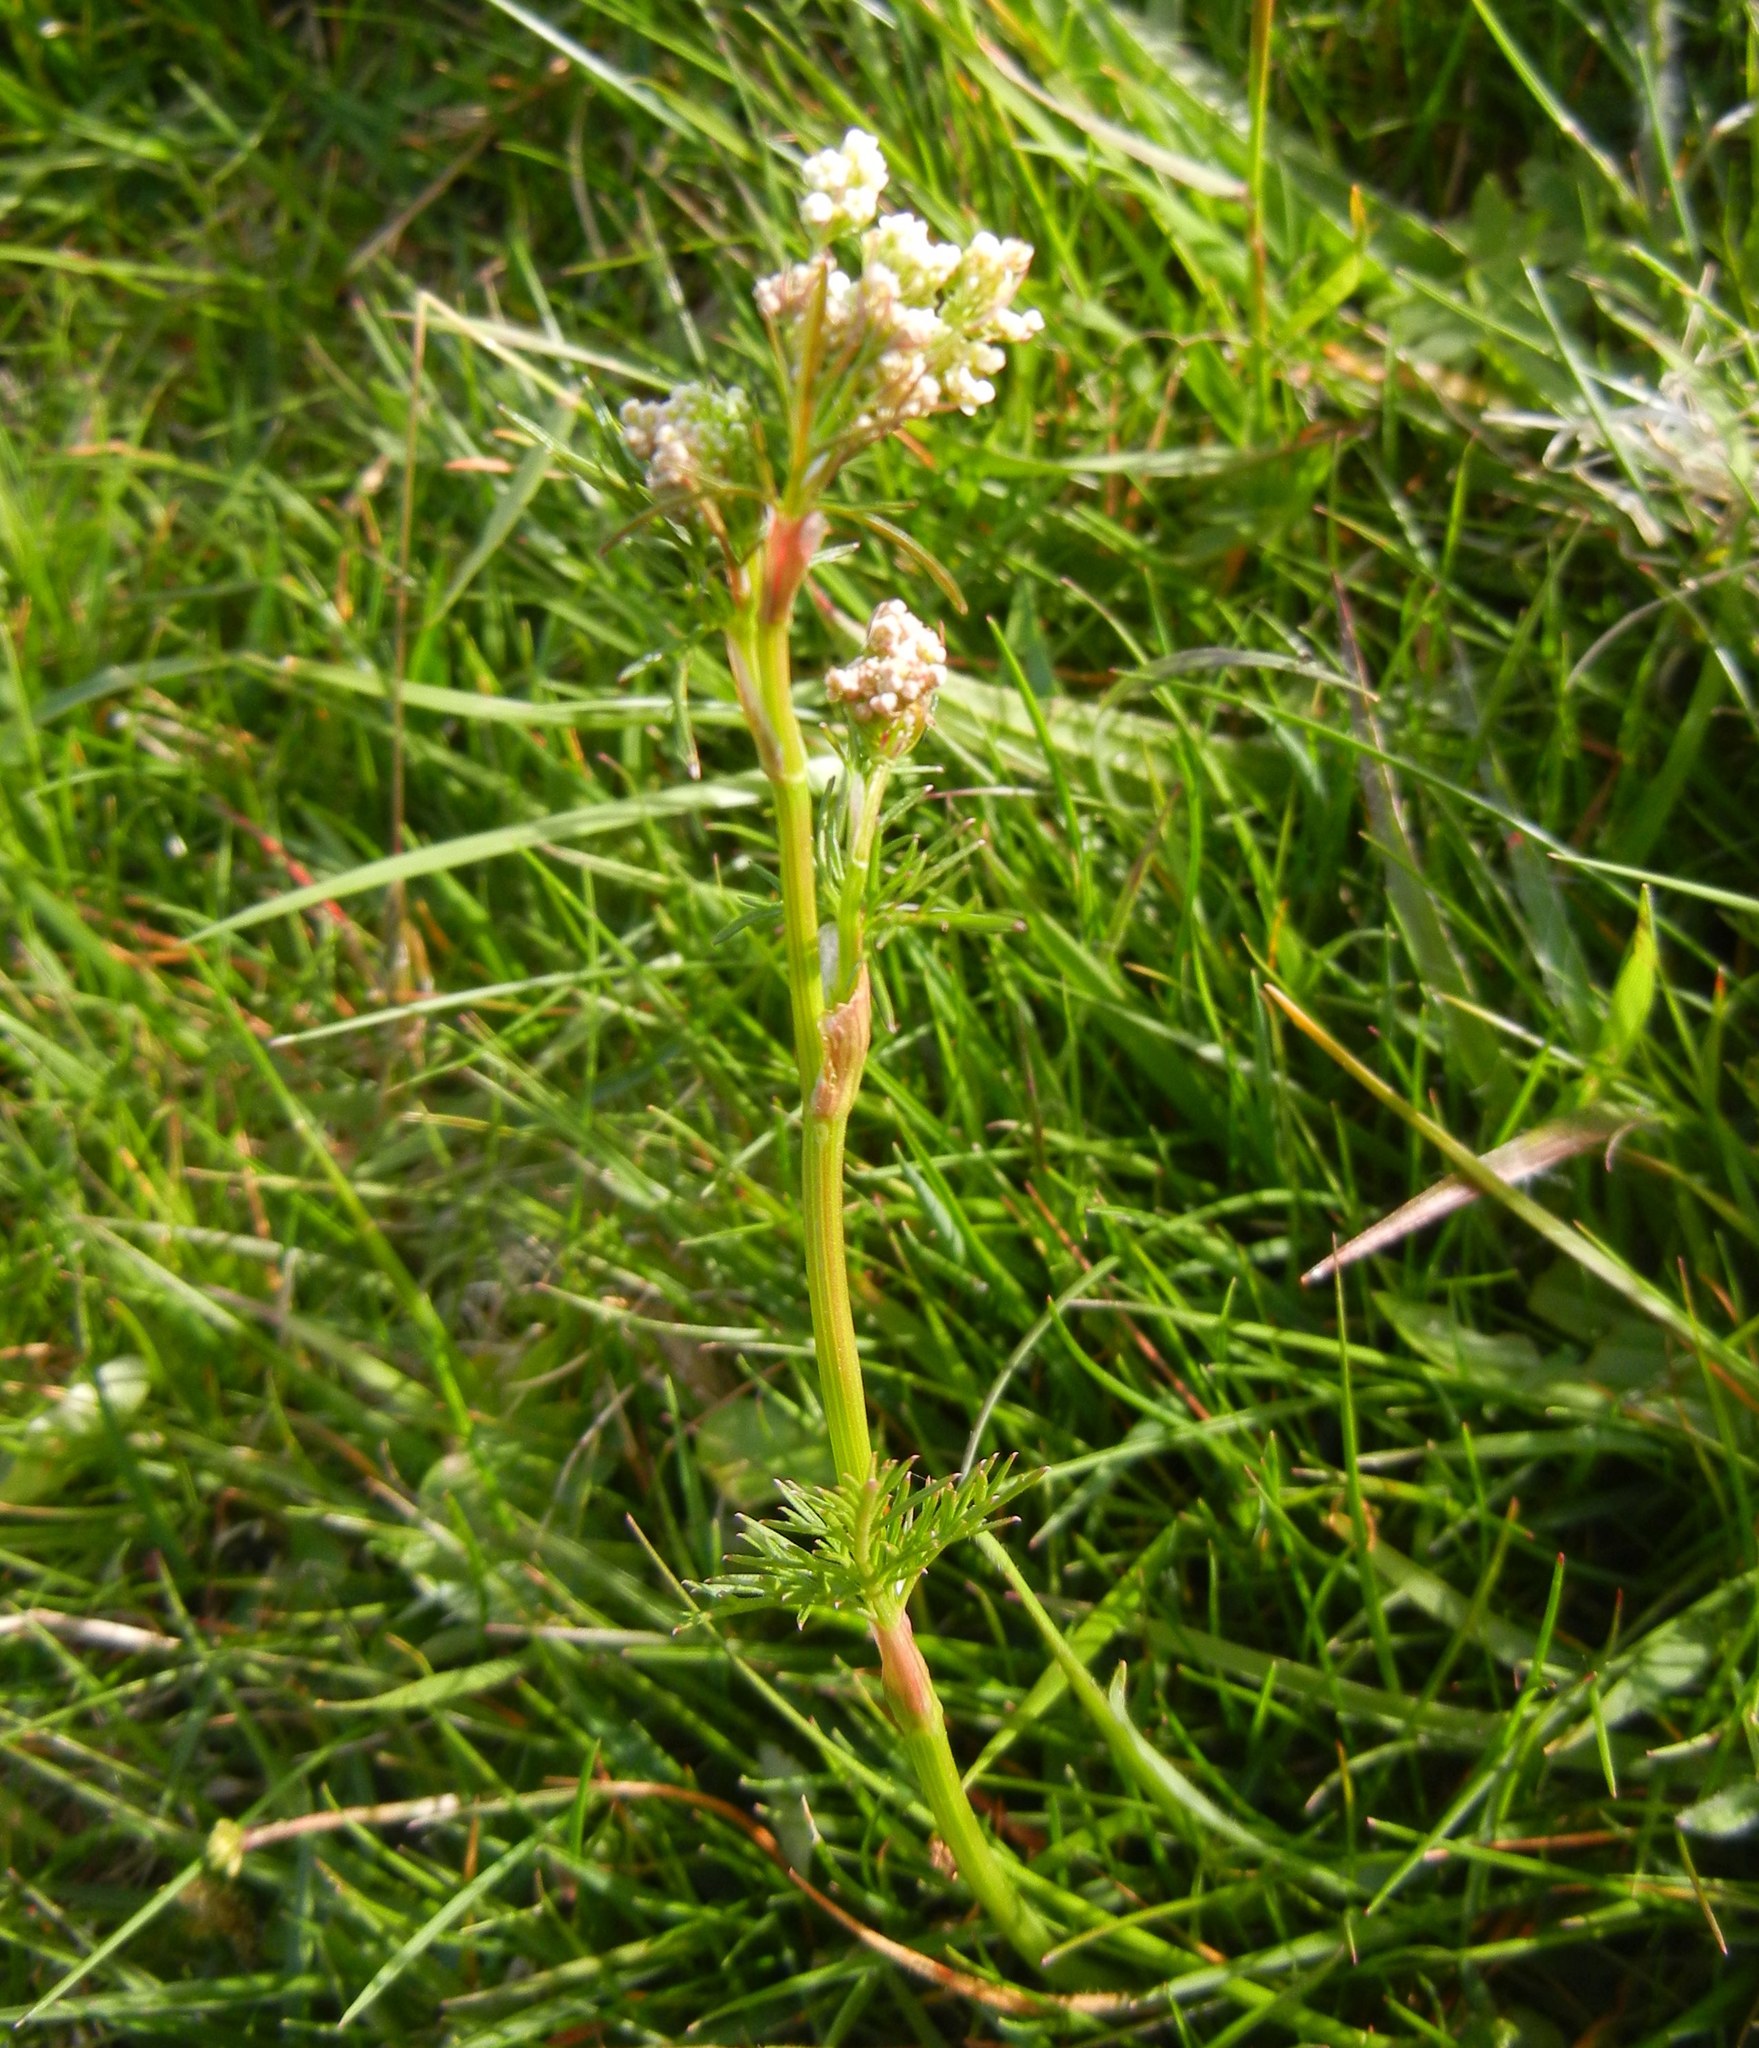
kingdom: Plantae
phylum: Tracheophyta
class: Magnoliopsida
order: Apiales
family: Apiaceae
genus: Conopodium
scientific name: Conopodium majus
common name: Pignut
